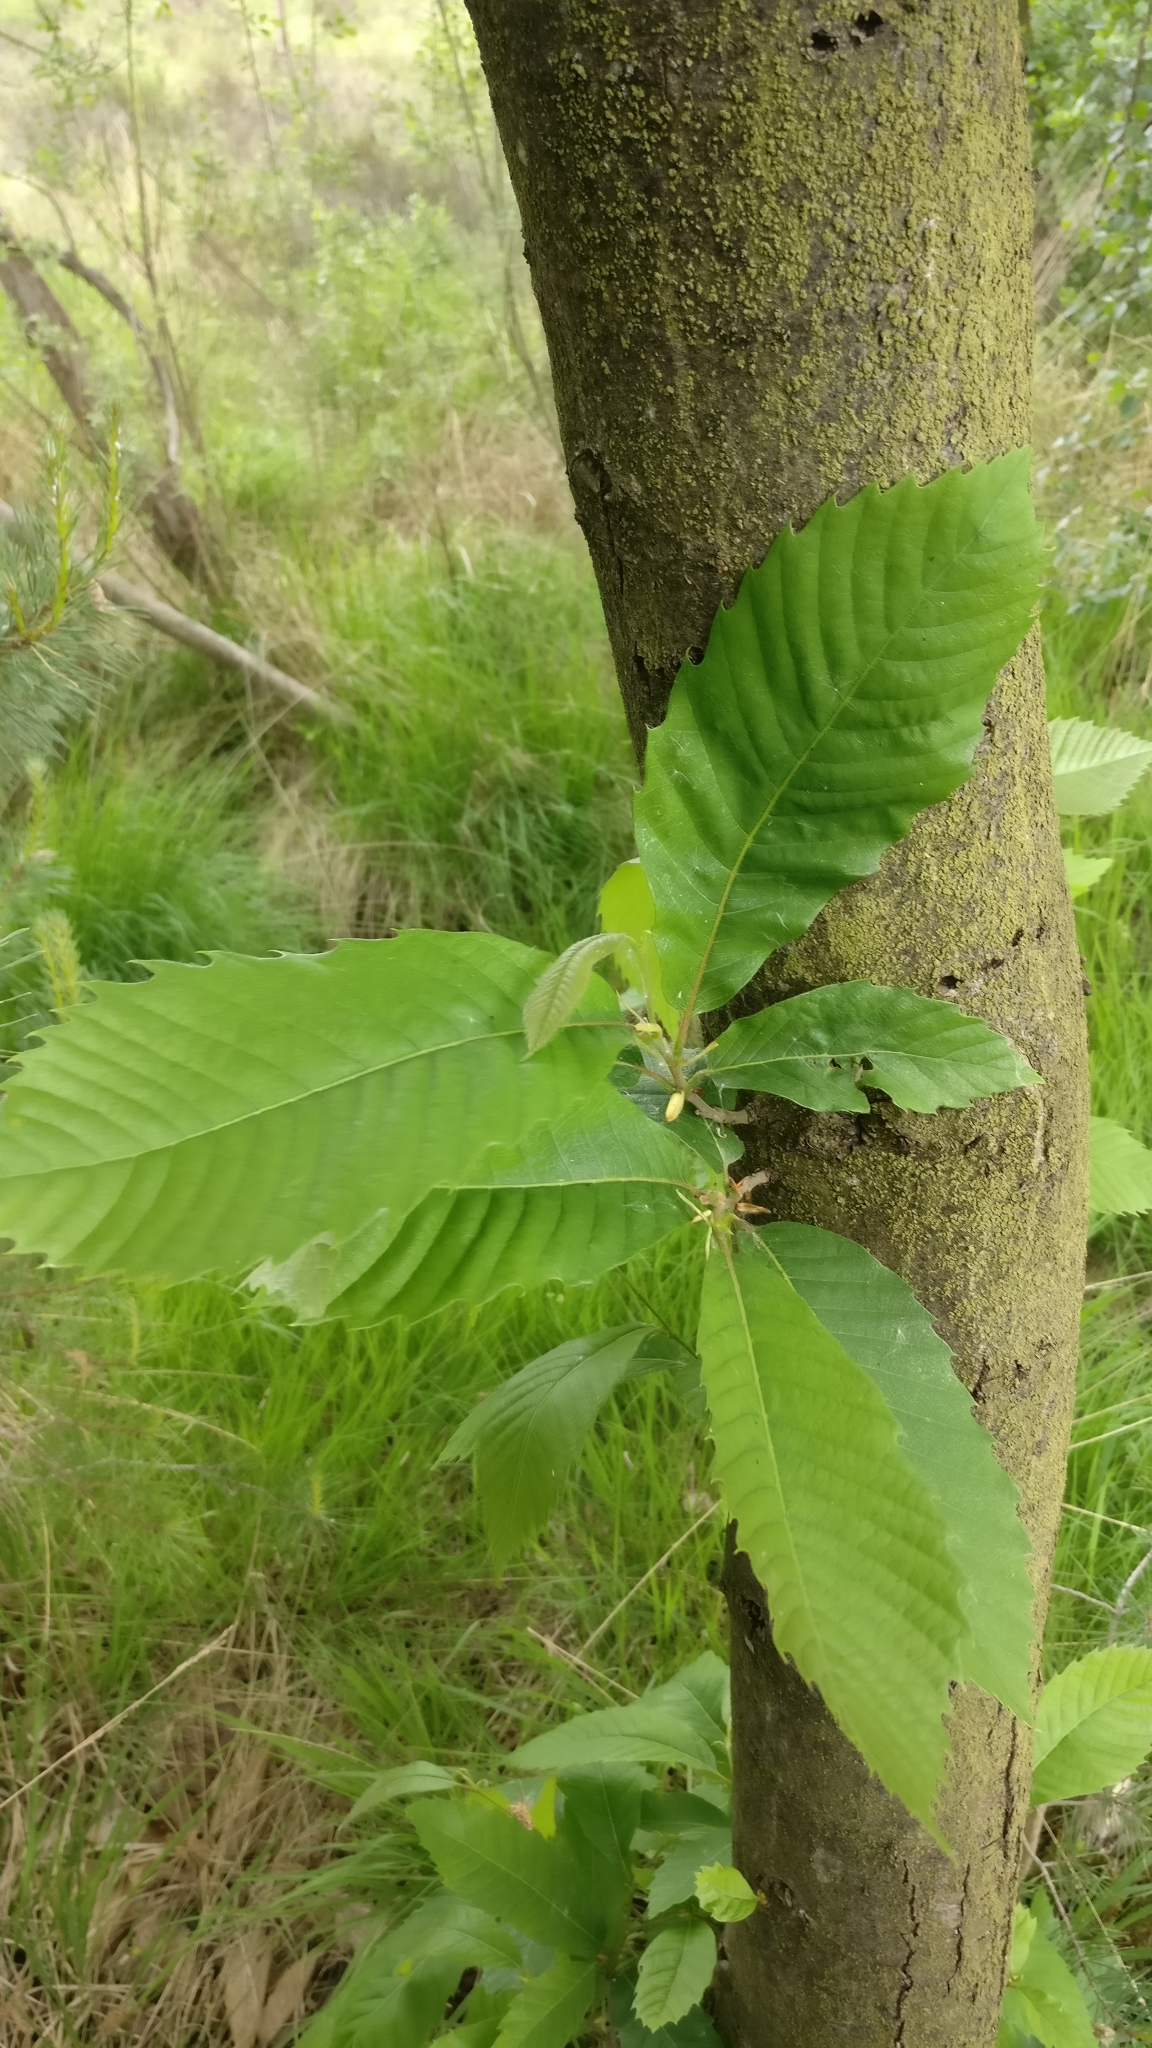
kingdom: Plantae
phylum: Tracheophyta
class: Magnoliopsida
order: Fagales
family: Fagaceae
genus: Castanea
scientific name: Castanea sativa
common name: Sweet chestnut
